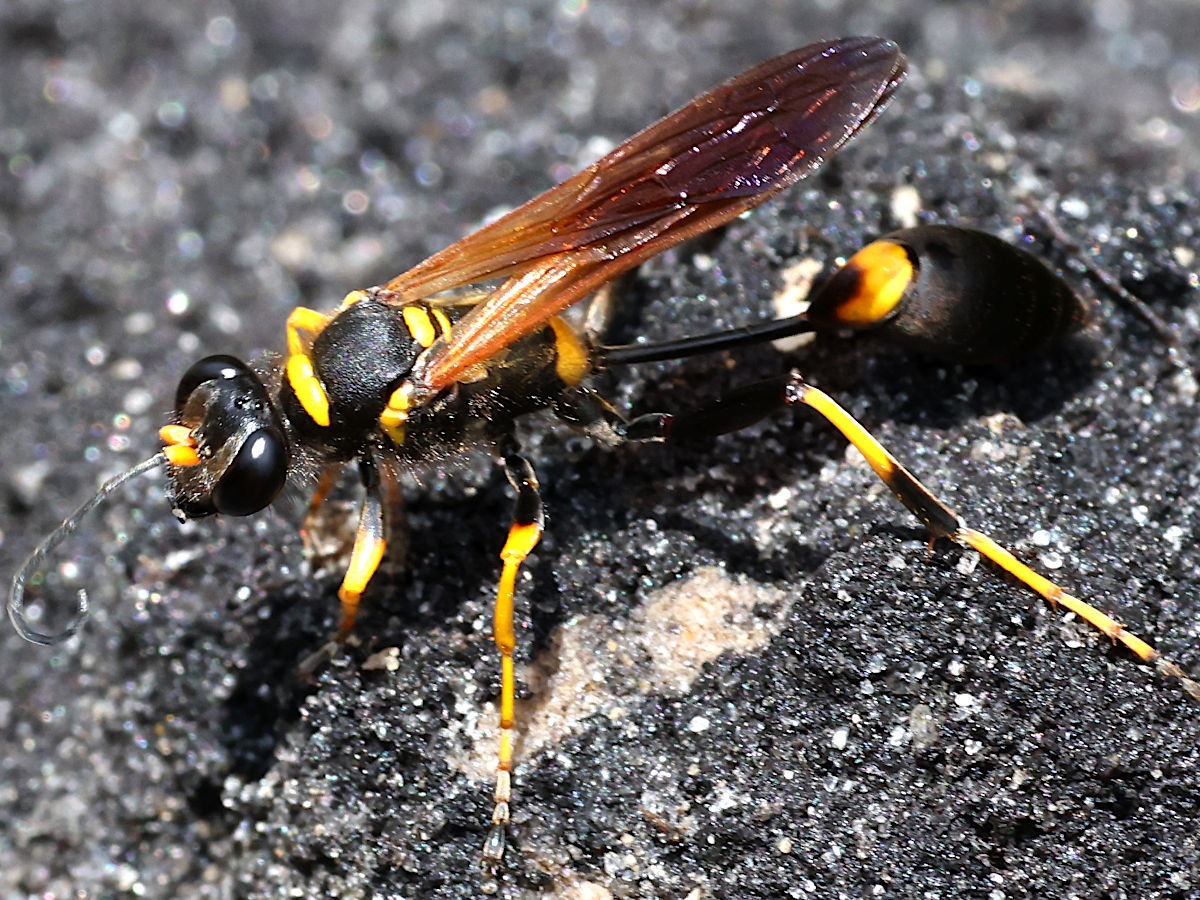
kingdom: Animalia
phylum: Arthropoda
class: Insecta
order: Hymenoptera
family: Sphecidae
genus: Sceliphron
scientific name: Sceliphron caementarium
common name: Mud dauber
